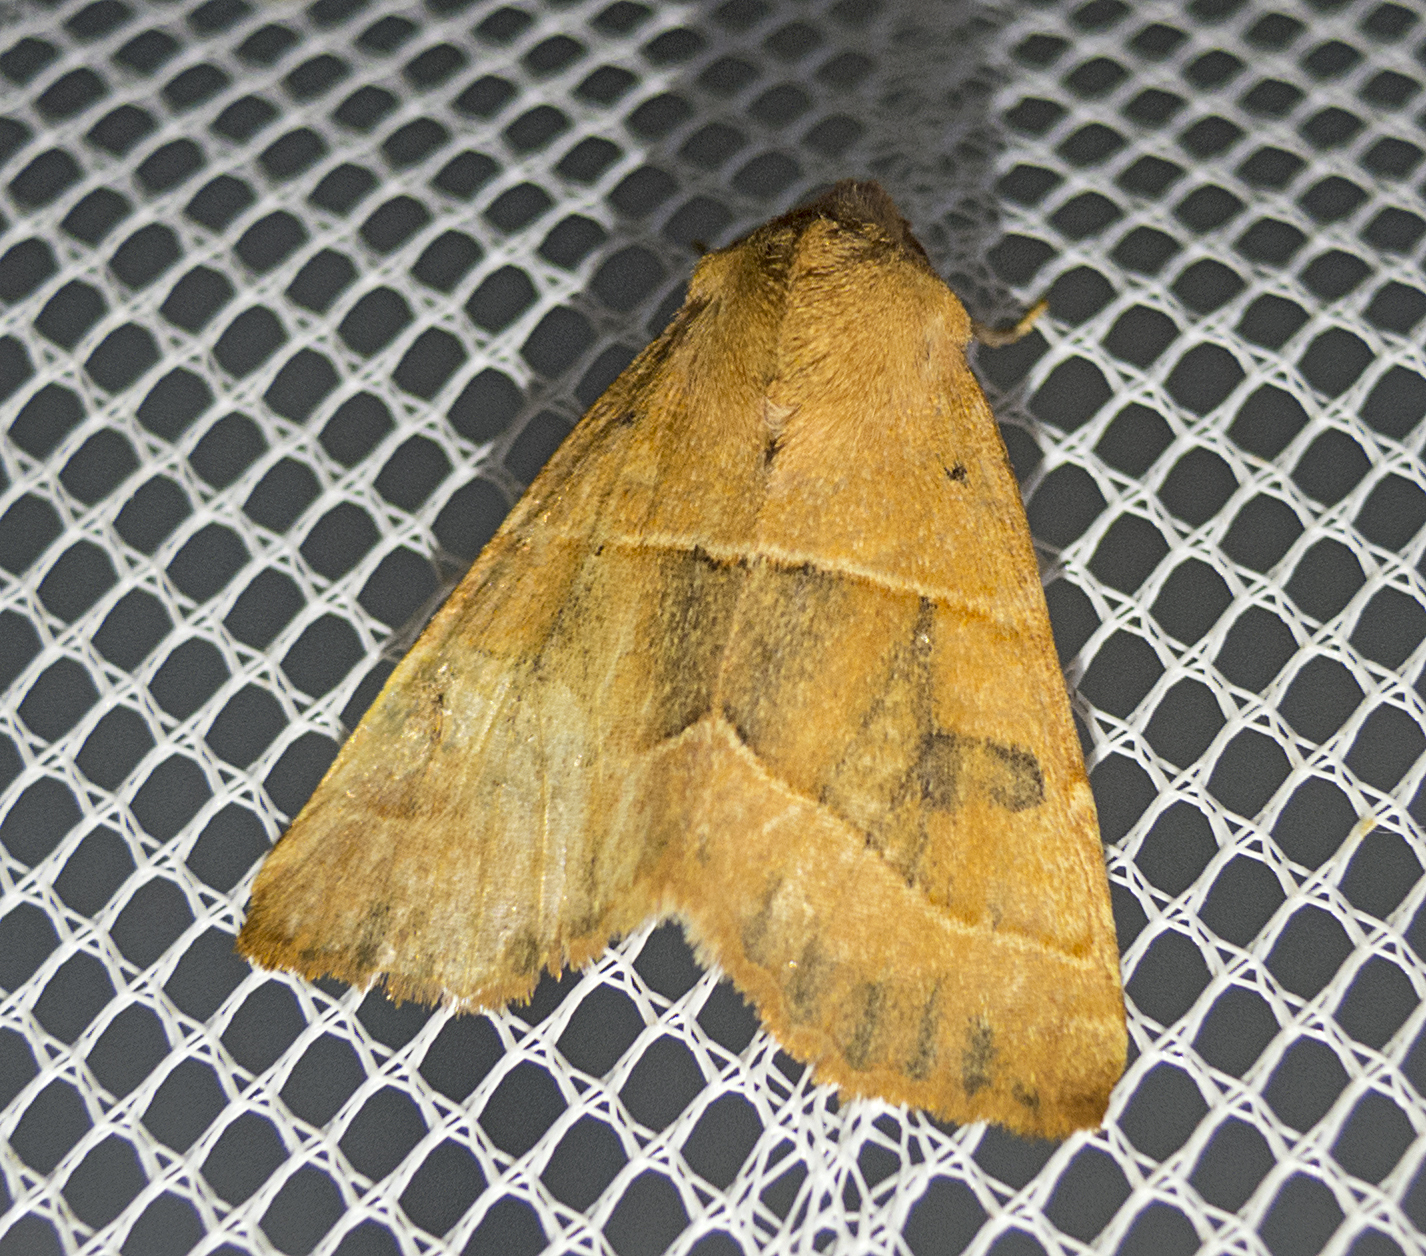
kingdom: Animalia
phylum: Arthropoda
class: Insecta
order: Lepidoptera
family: Noctuidae
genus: Atethmia
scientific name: Atethmia centrago
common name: Centre-barred sallow
